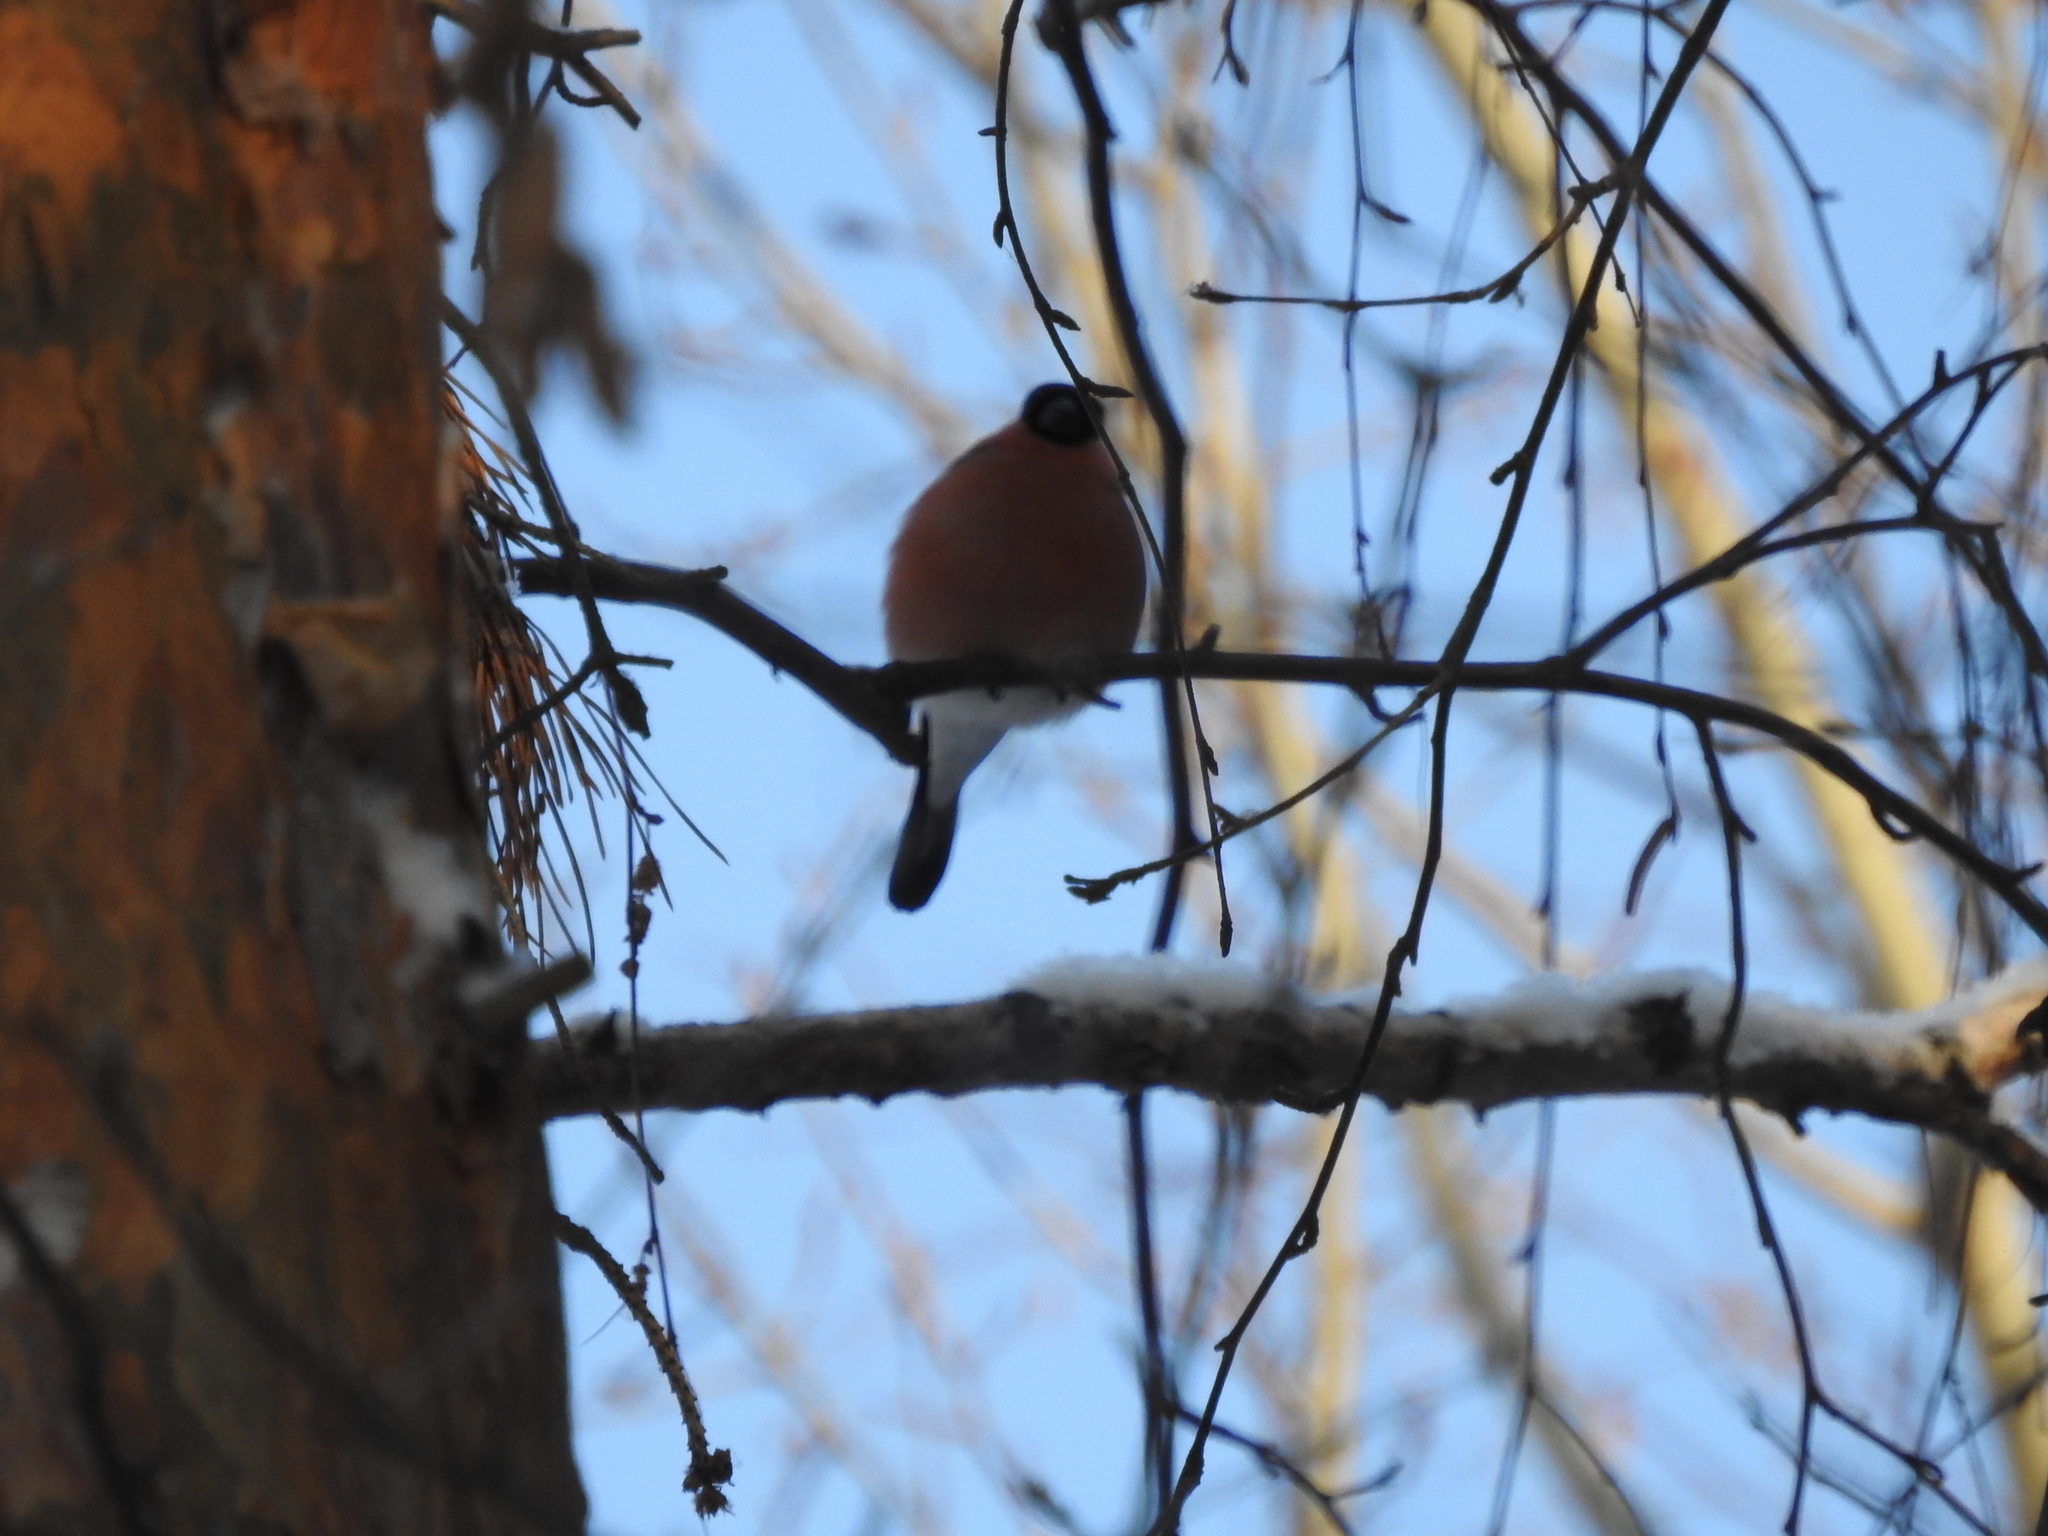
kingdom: Animalia
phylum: Chordata
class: Aves
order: Passeriformes
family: Fringillidae
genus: Pyrrhula
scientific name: Pyrrhula pyrrhula
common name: Eurasian bullfinch
